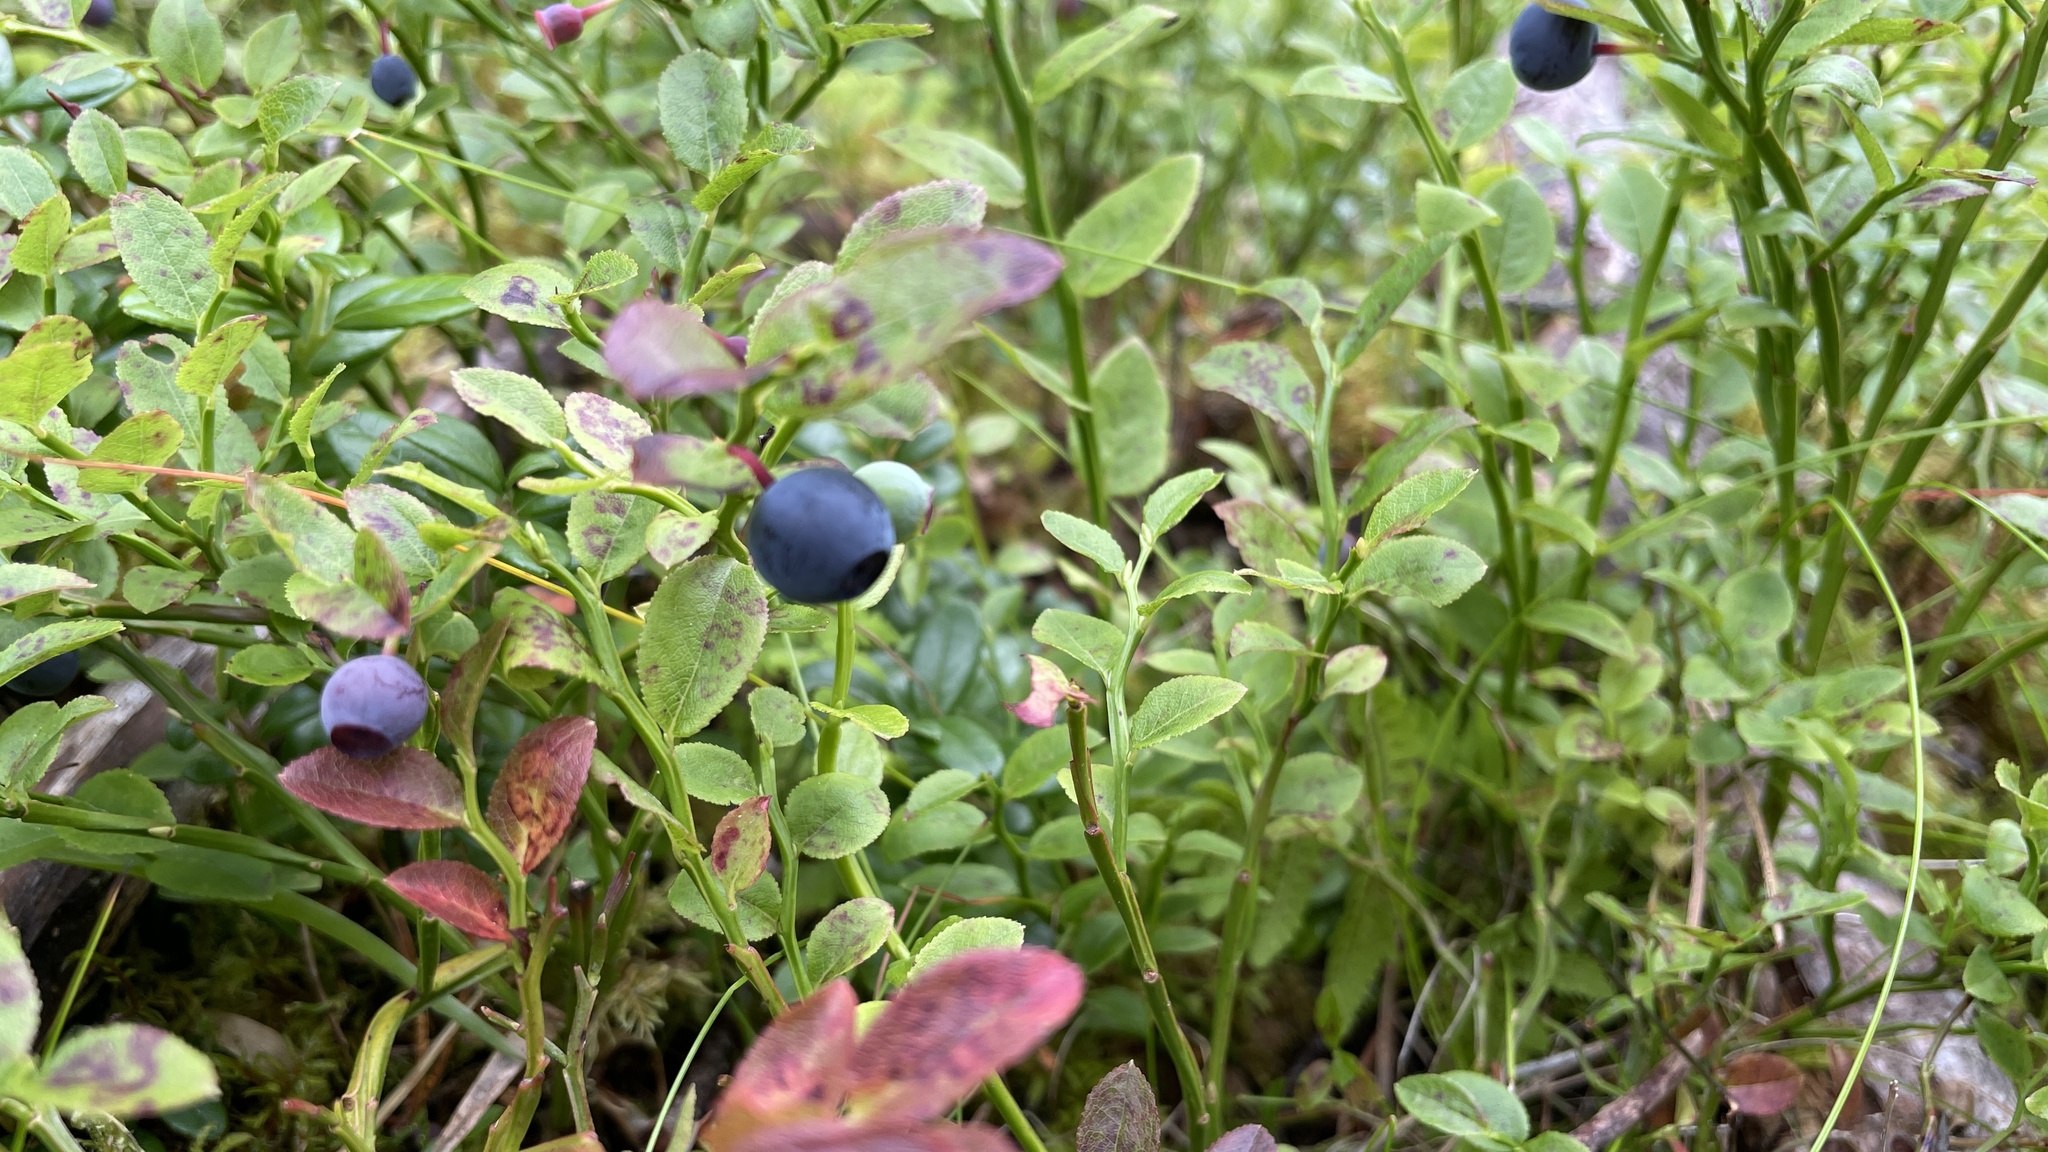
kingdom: Plantae
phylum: Tracheophyta
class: Magnoliopsida
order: Ericales
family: Ericaceae
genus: Vaccinium
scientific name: Vaccinium myrtillus
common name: Bilberry
